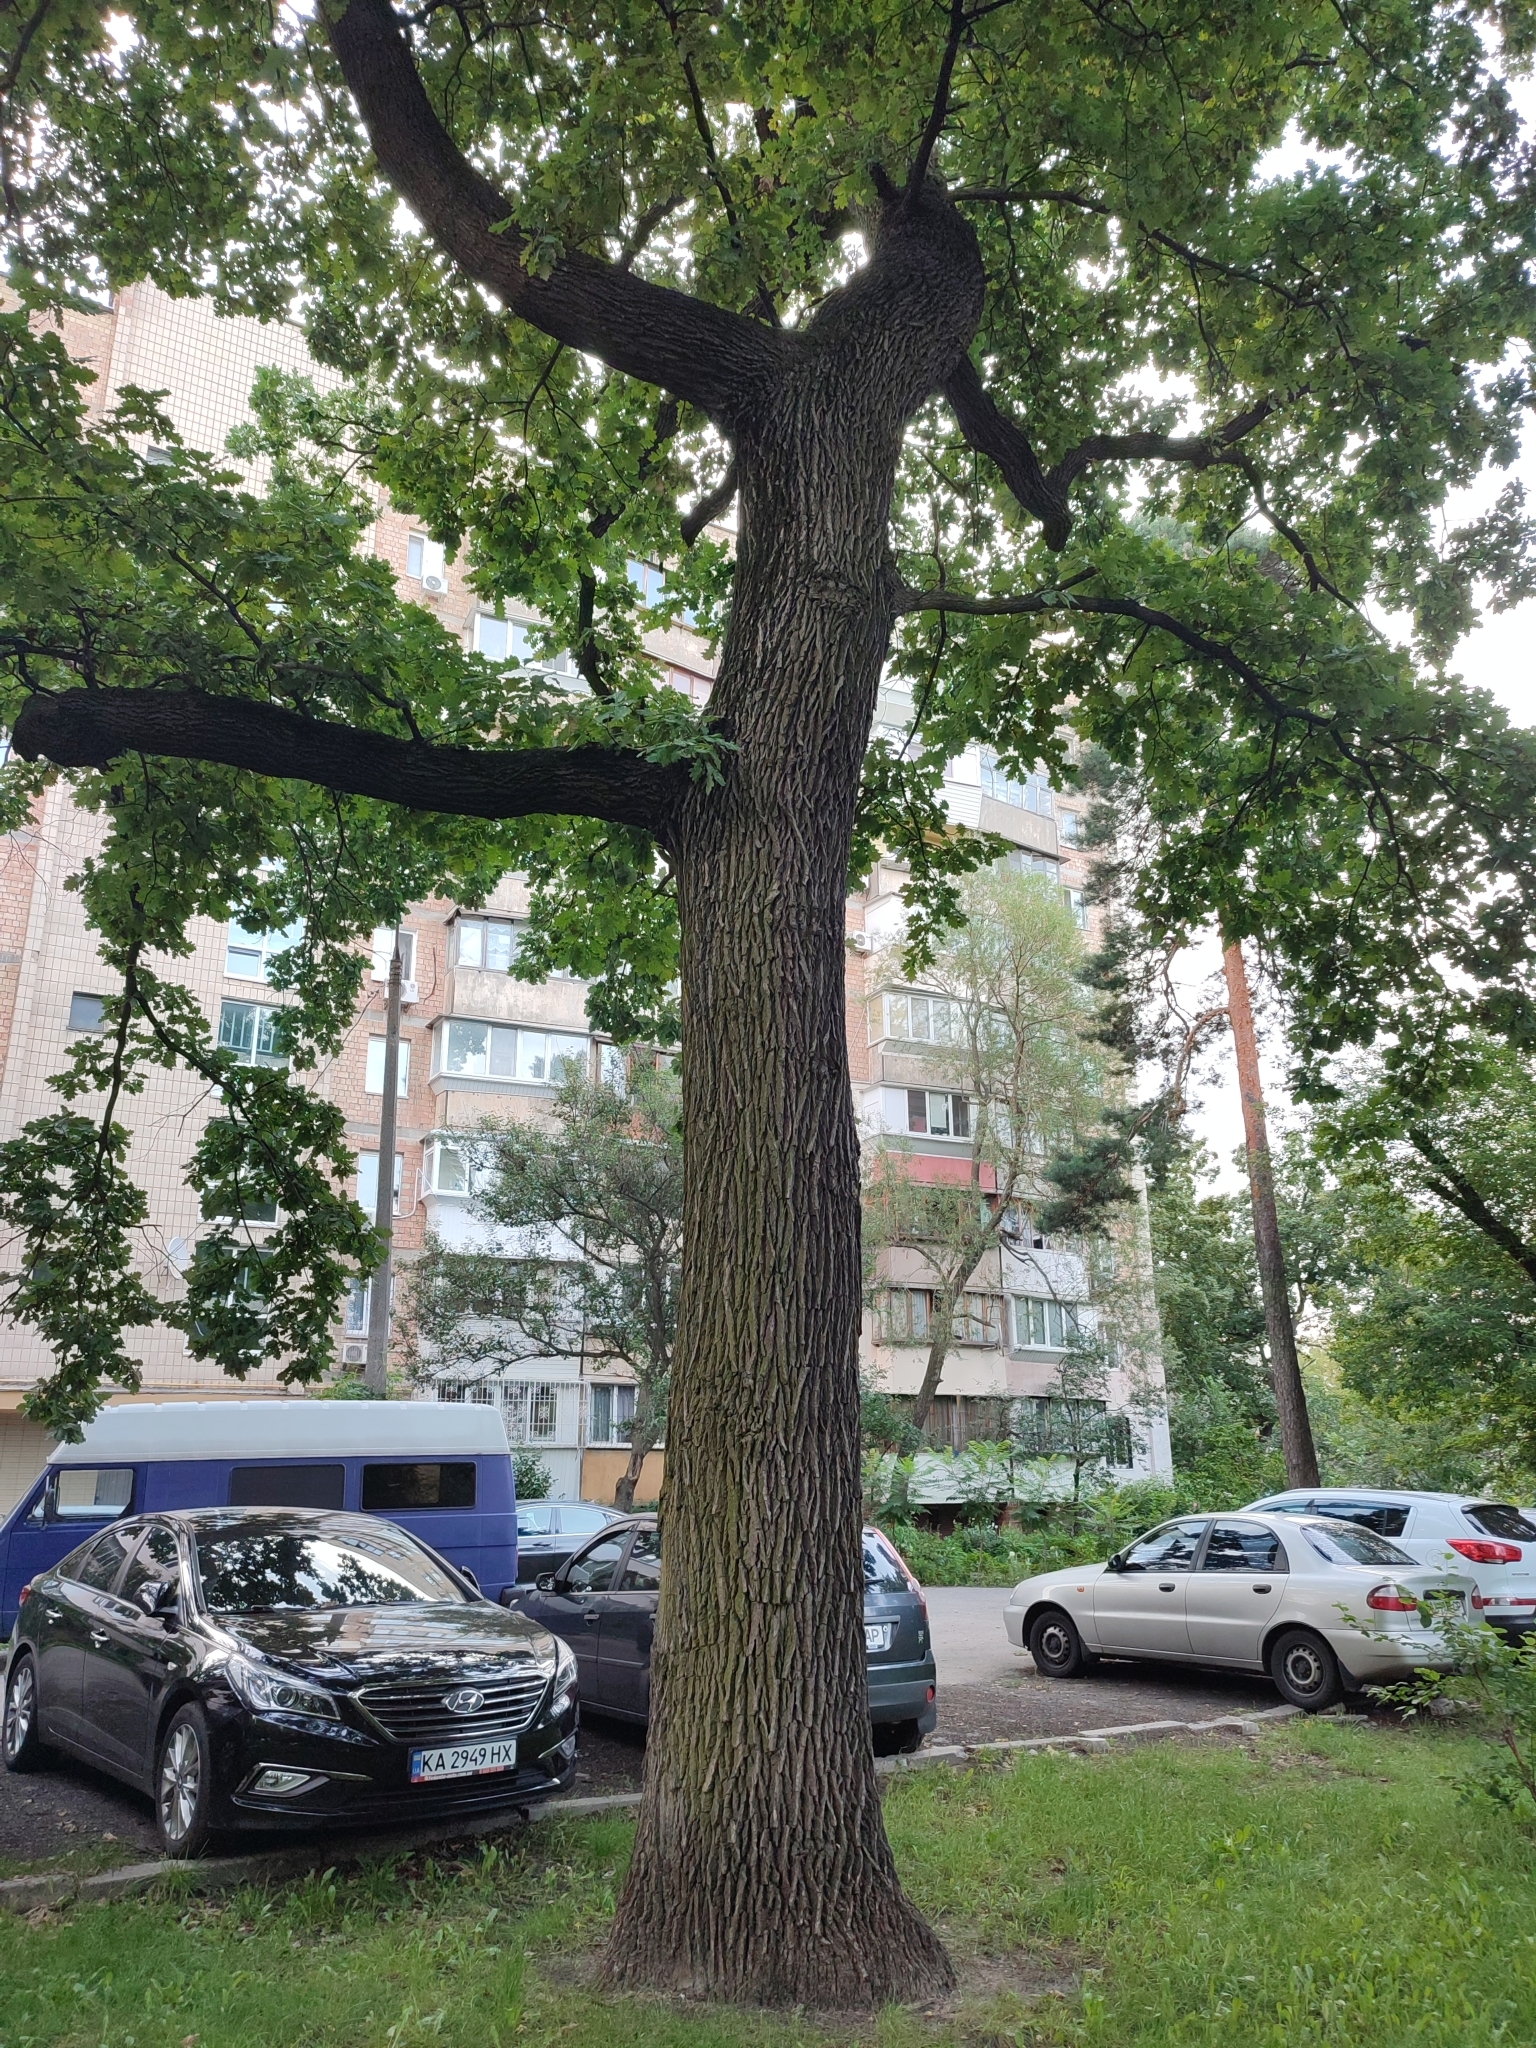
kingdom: Plantae
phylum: Tracheophyta
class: Magnoliopsida
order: Fagales
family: Fagaceae
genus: Quercus
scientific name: Quercus robur
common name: Pedunculate oak
